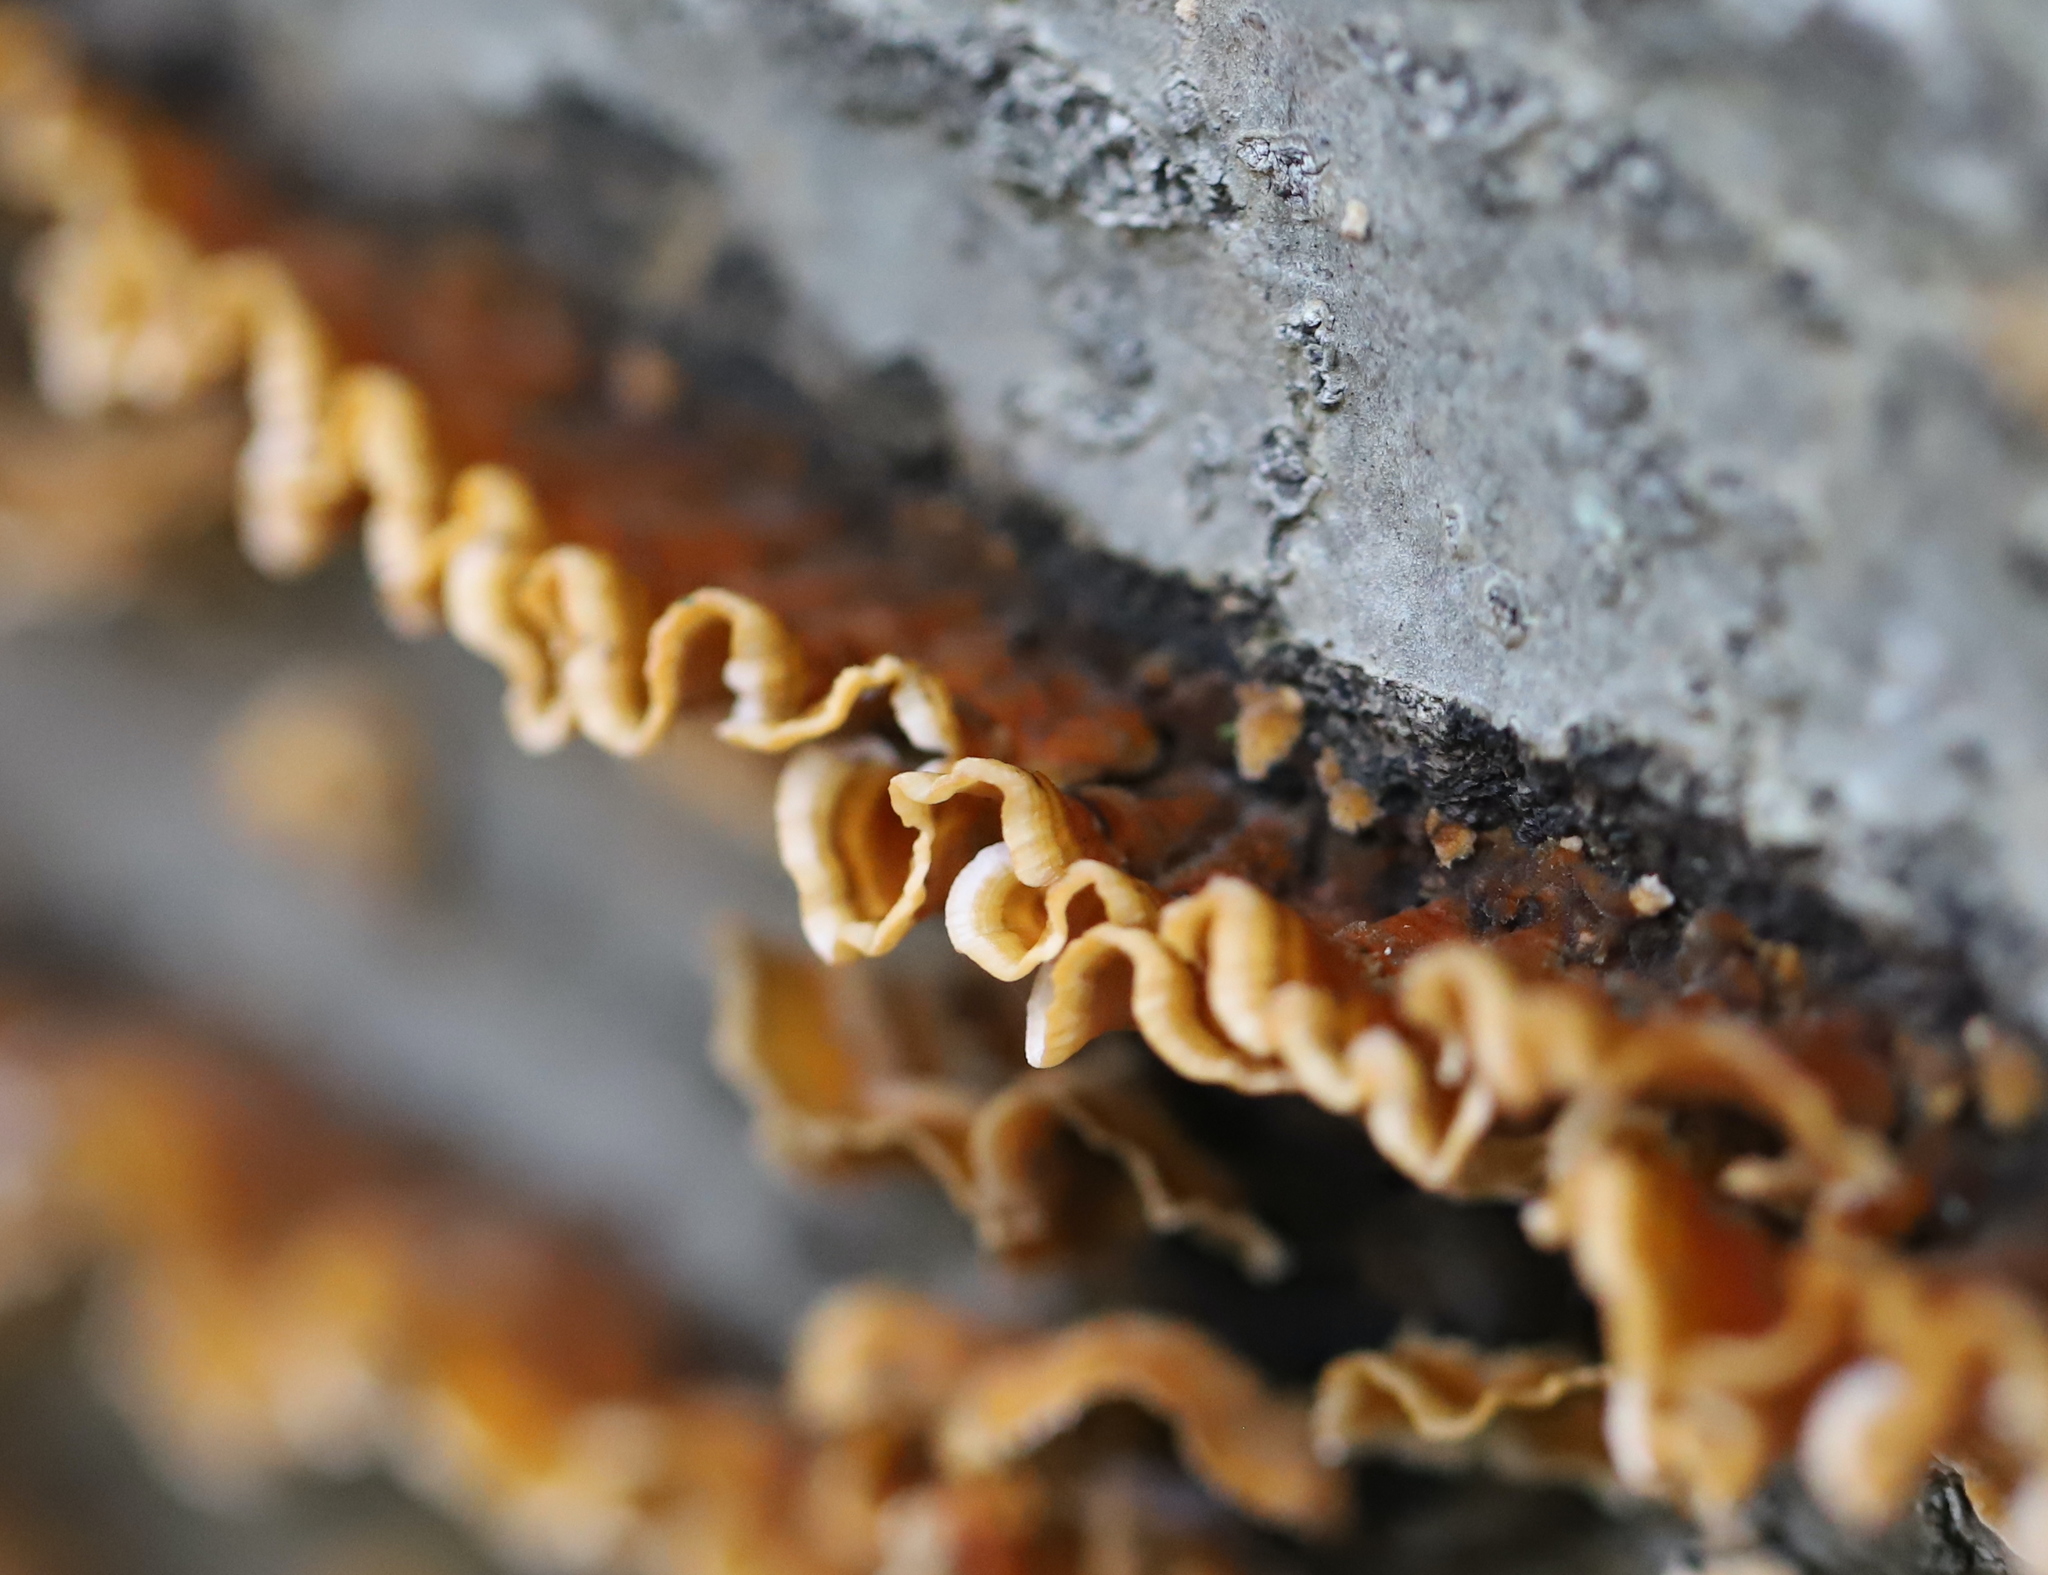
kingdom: Fungi
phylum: Basidiomycota
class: Agaricomycetes
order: Russulales
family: Stereaceae
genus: Stereum
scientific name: Stereum complicatum
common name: Crowded parchment
